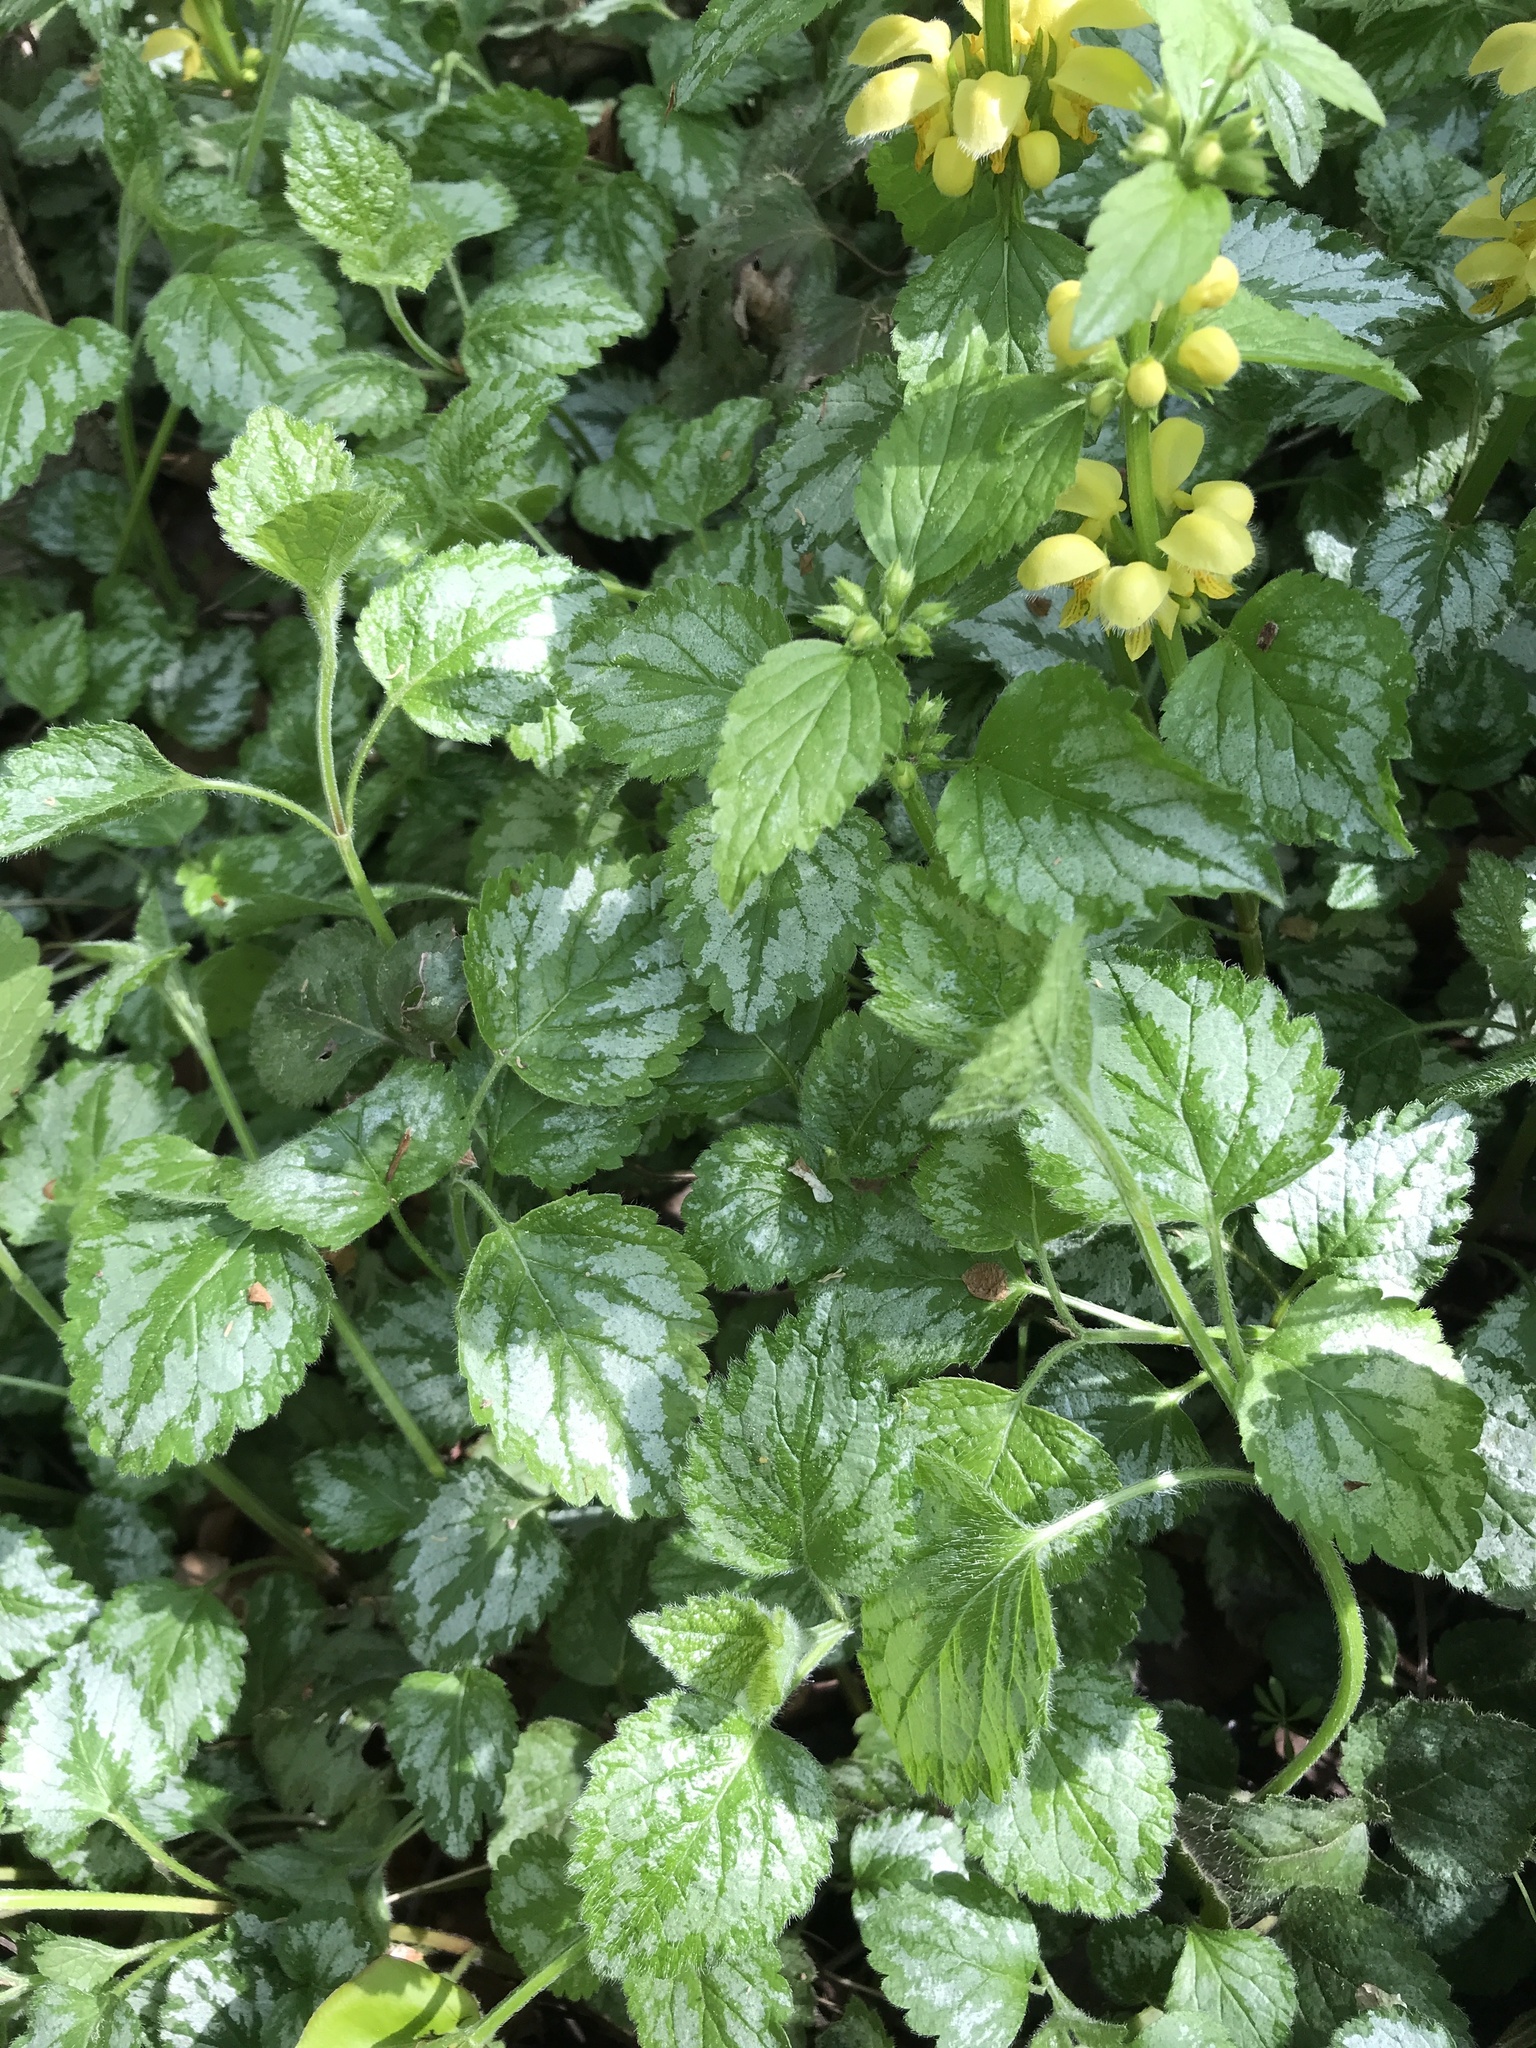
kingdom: Plantae
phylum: Tracheophyta
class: Magnoliopsida
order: Lamiales
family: Lamiaceae
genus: Lamium
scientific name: Lamium galeobdolon
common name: Yellow archangel
